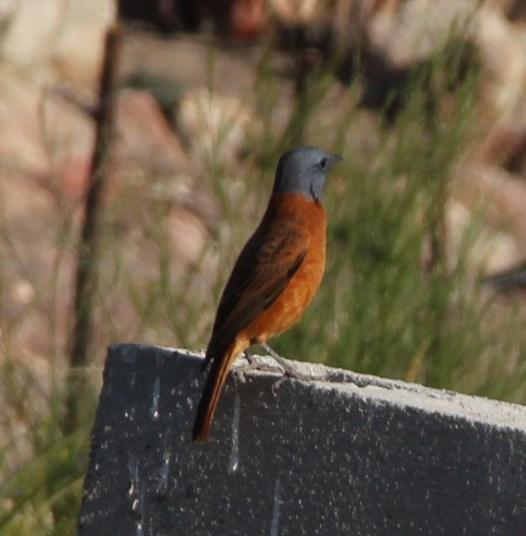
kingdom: Animalia
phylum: Chordata
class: Aves
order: Passeriformes
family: Muscicapidae
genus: Monticola
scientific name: Monticola rupestris
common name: Cape rock thrush
